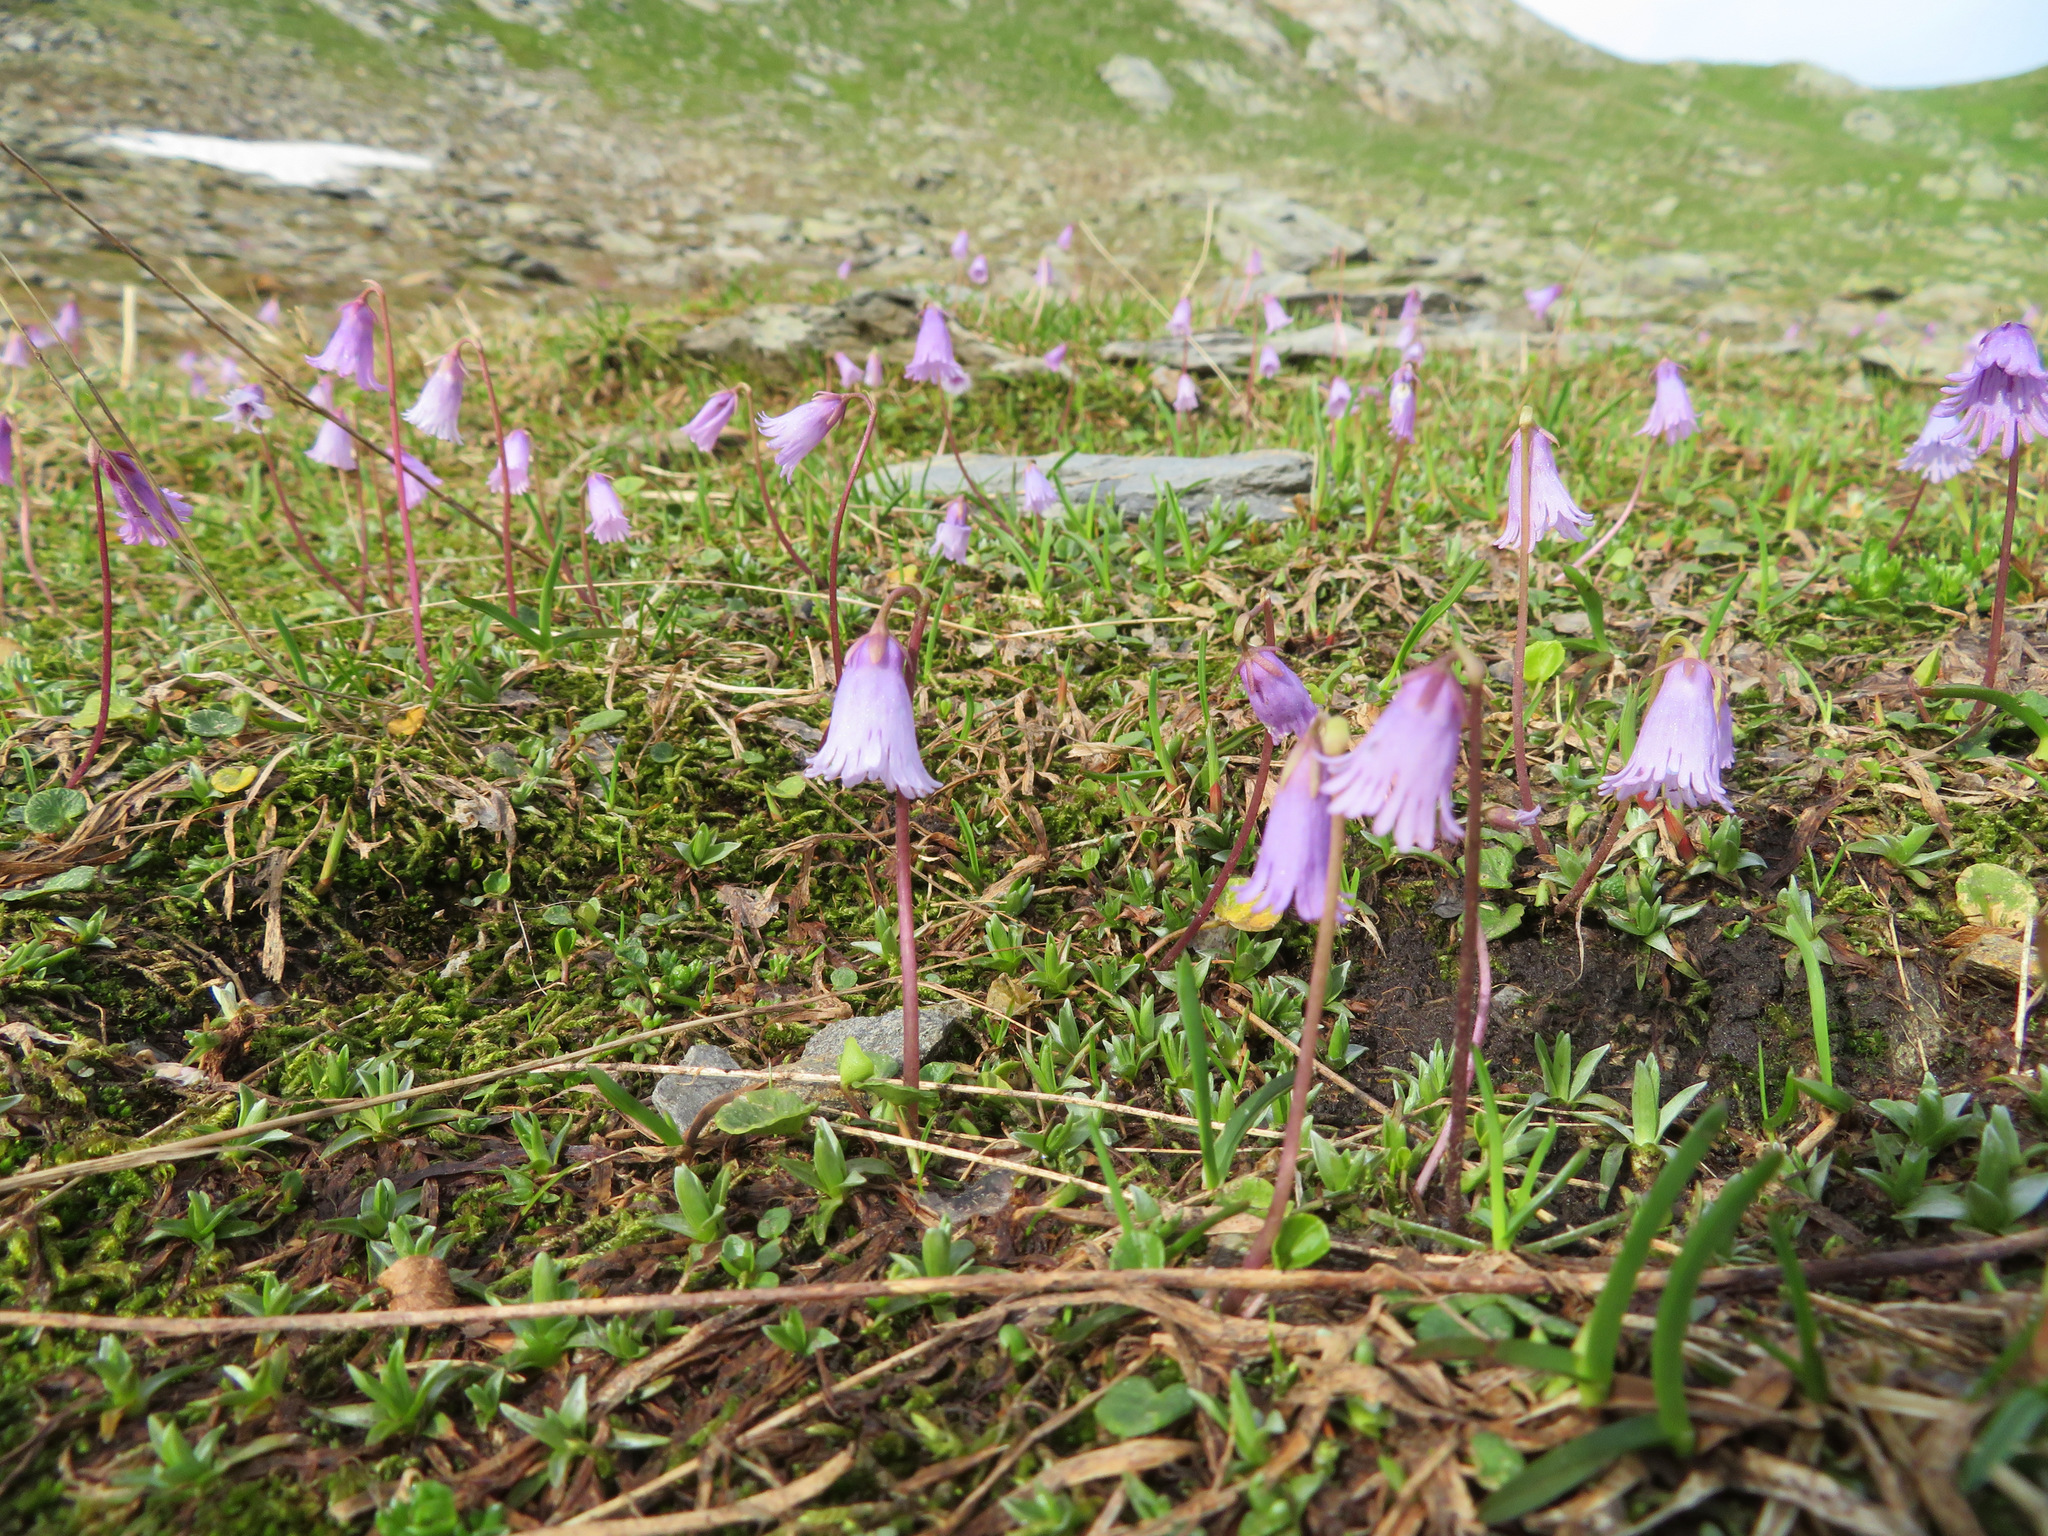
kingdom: Plantae
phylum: Tracheophyta
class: Magnoliopsida
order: Ericales
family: Primulaceae
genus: Soldanella
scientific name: Soldanella alpicola
